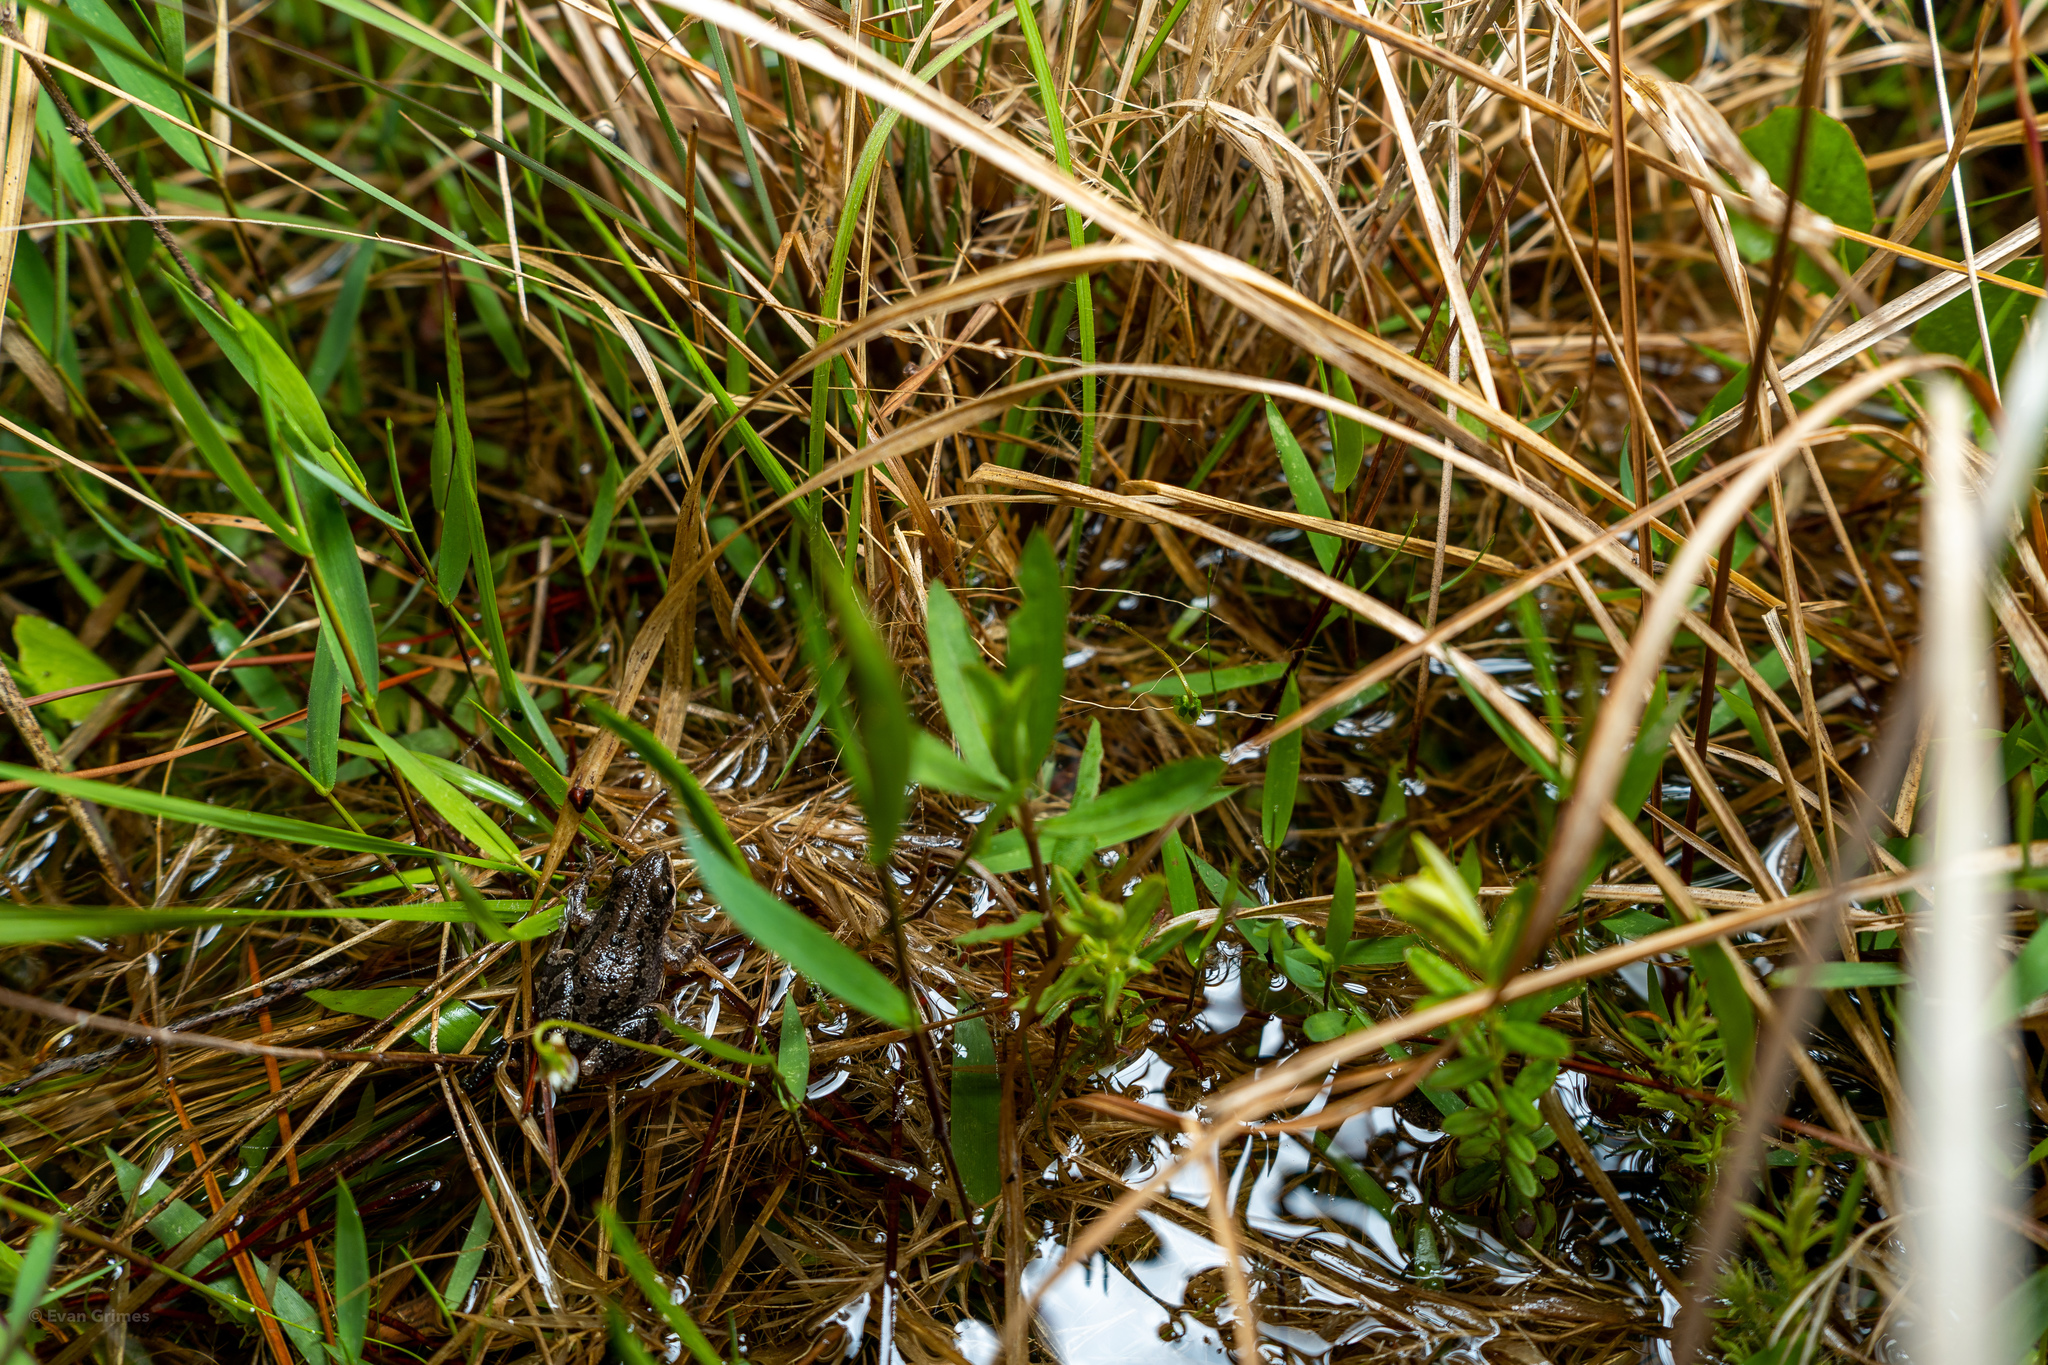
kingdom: Animalia
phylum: Chordata
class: Amphibia
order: Anura
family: Hylidae
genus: Pseudacris
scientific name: Pseudacris nigrita
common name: Southern chorus frog
